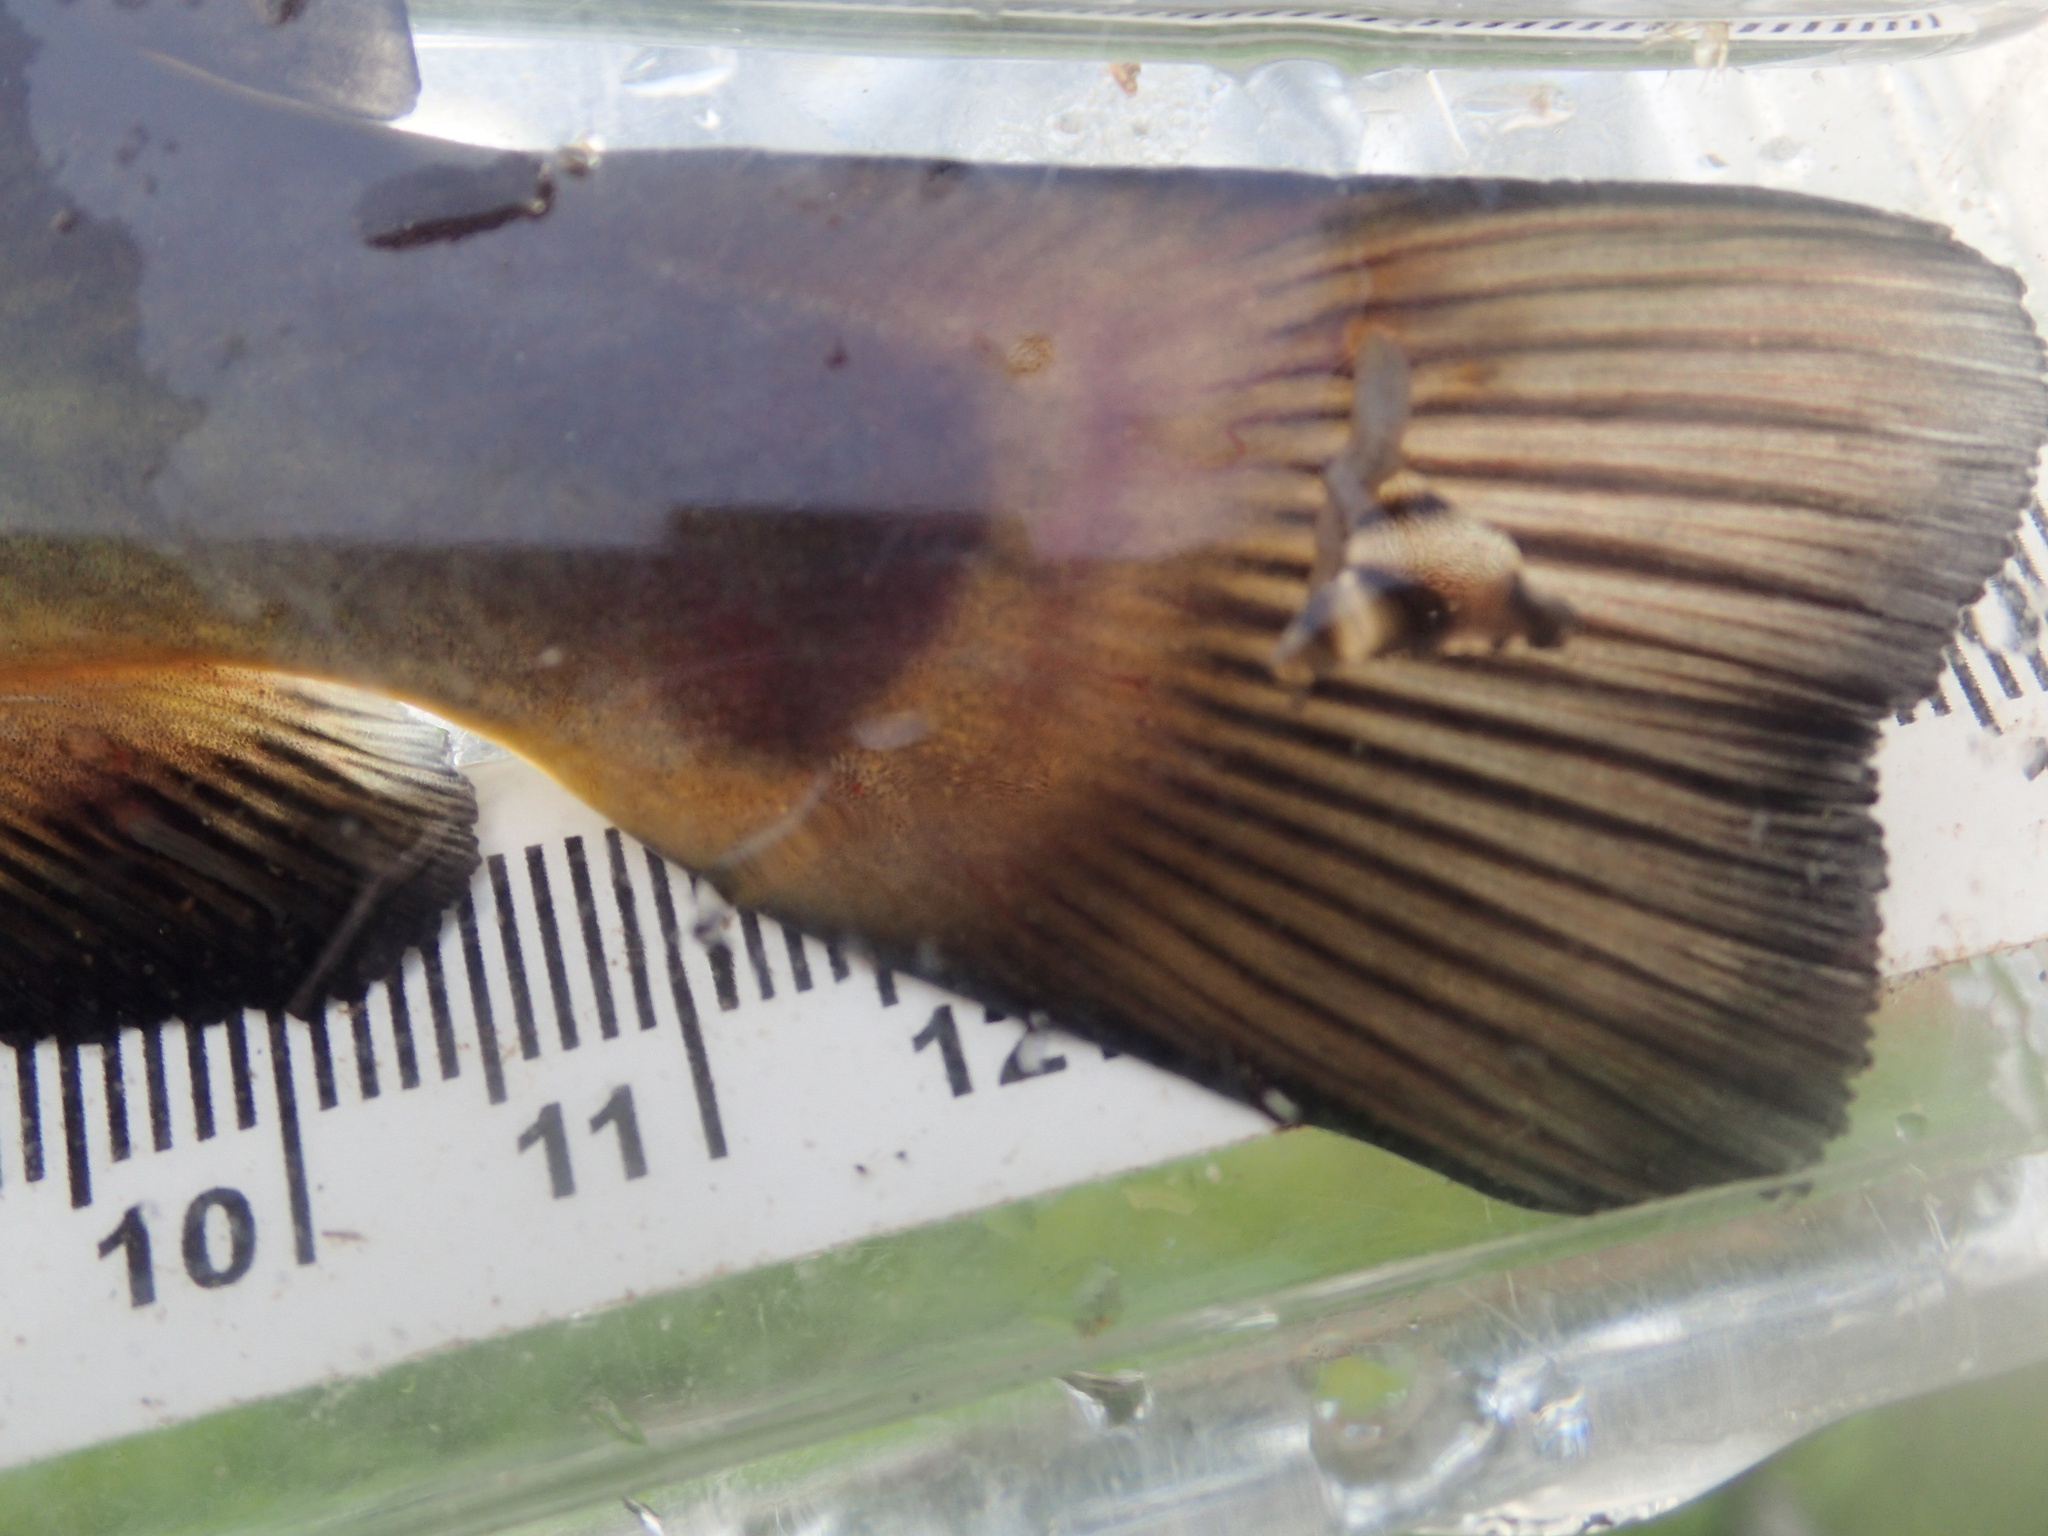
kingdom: Animalia
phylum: Chordata
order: Siluriformes
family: Ictaluridae
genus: Ameiurus
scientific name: Ameiurus melas
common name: Black bullhead
